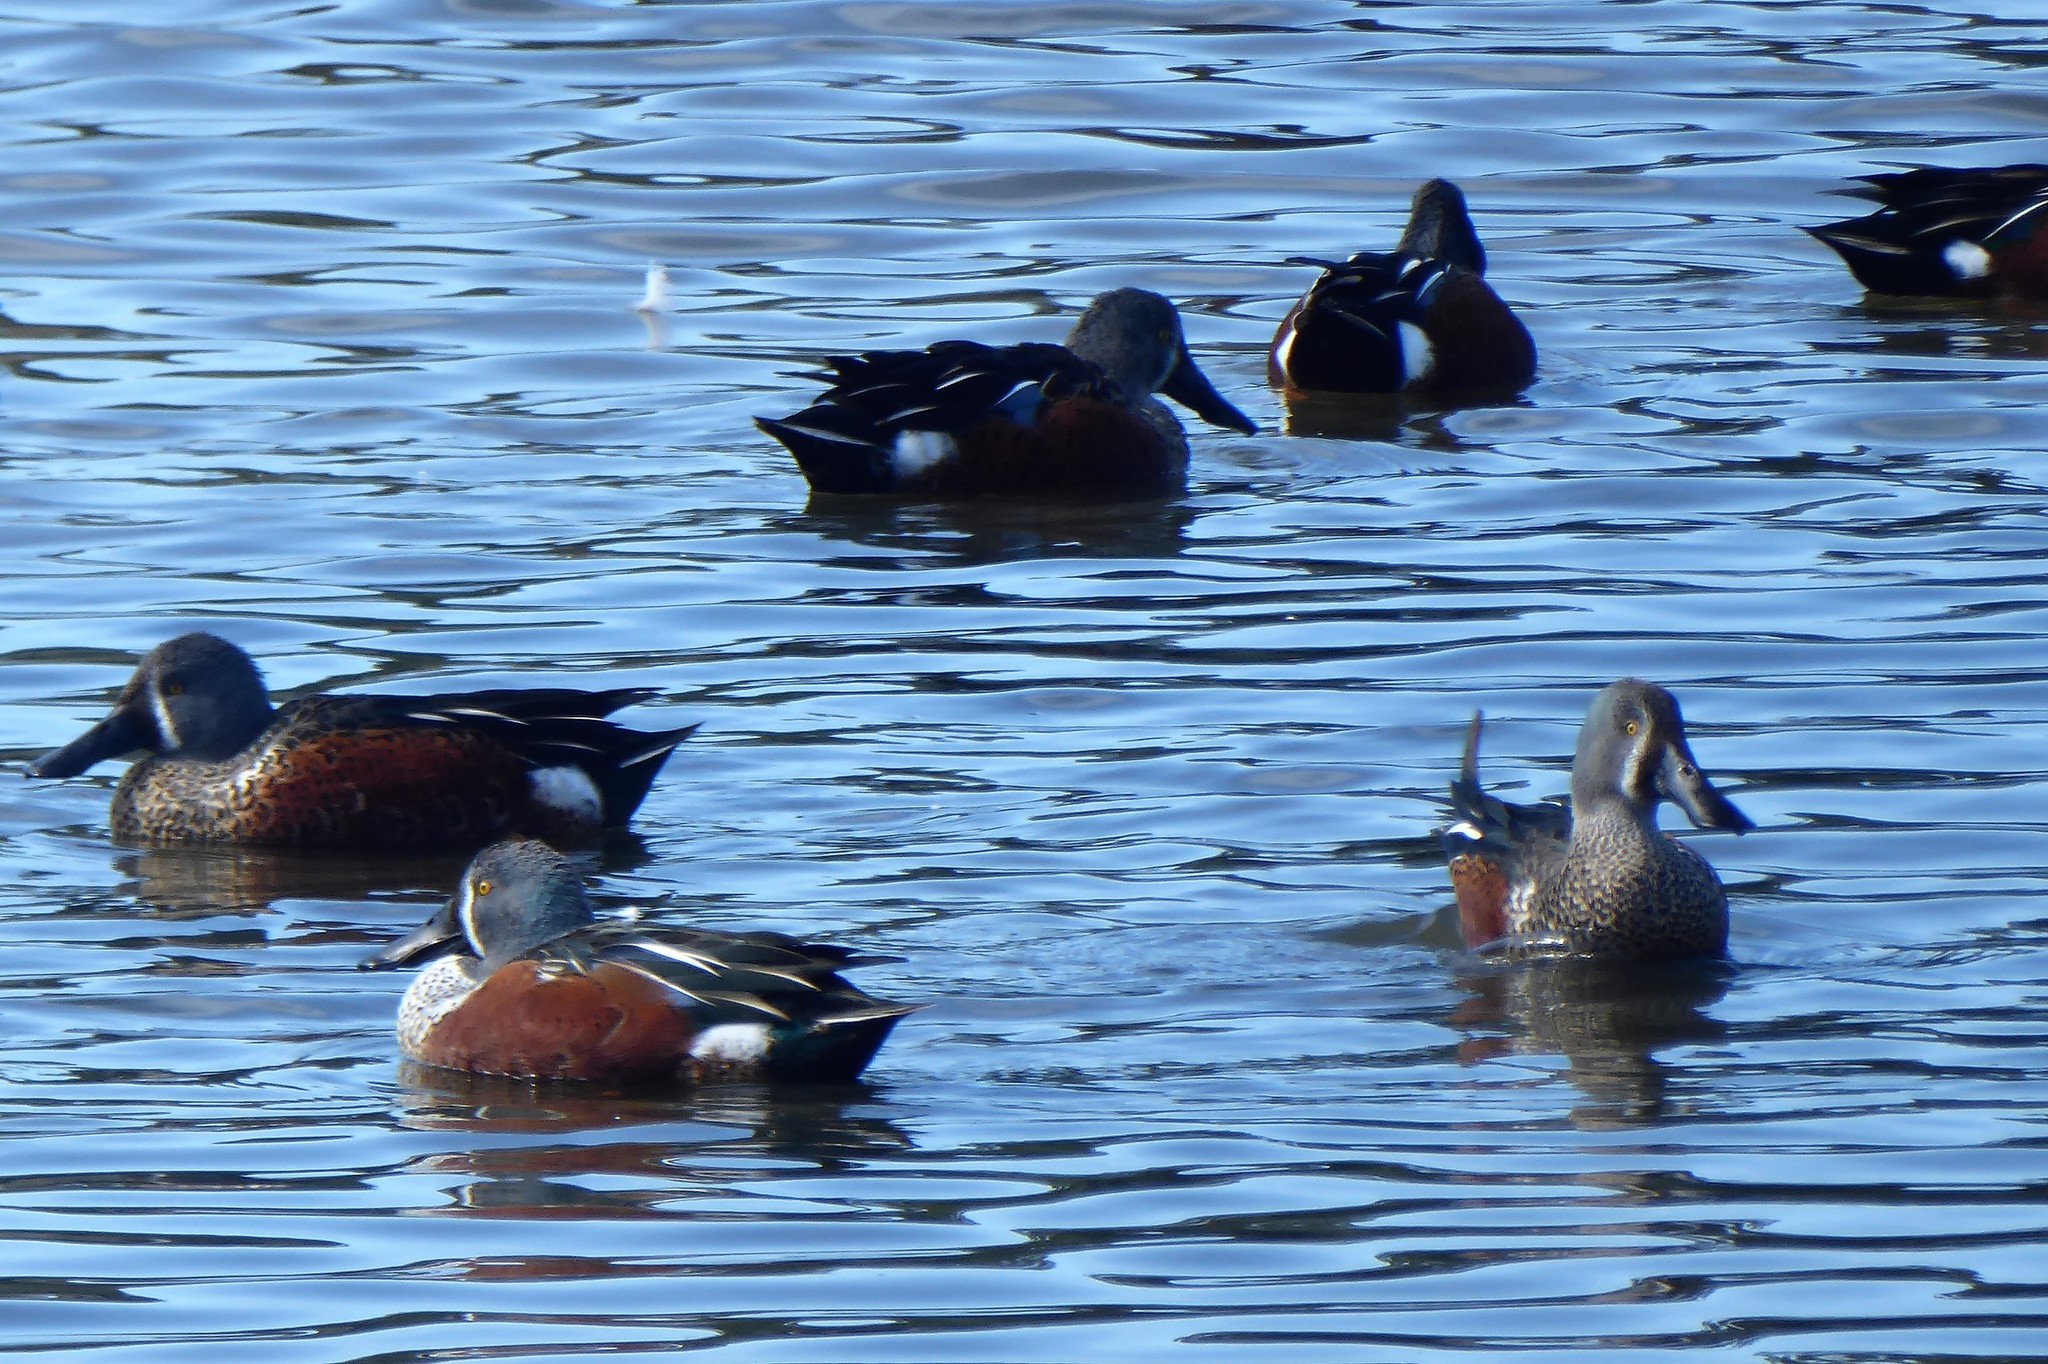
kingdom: Animalia
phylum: Chordata
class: Aves
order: Anseriformes
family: Anatidae
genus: Spatula
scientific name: Spatula rhynchotis
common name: Australian shoveler
